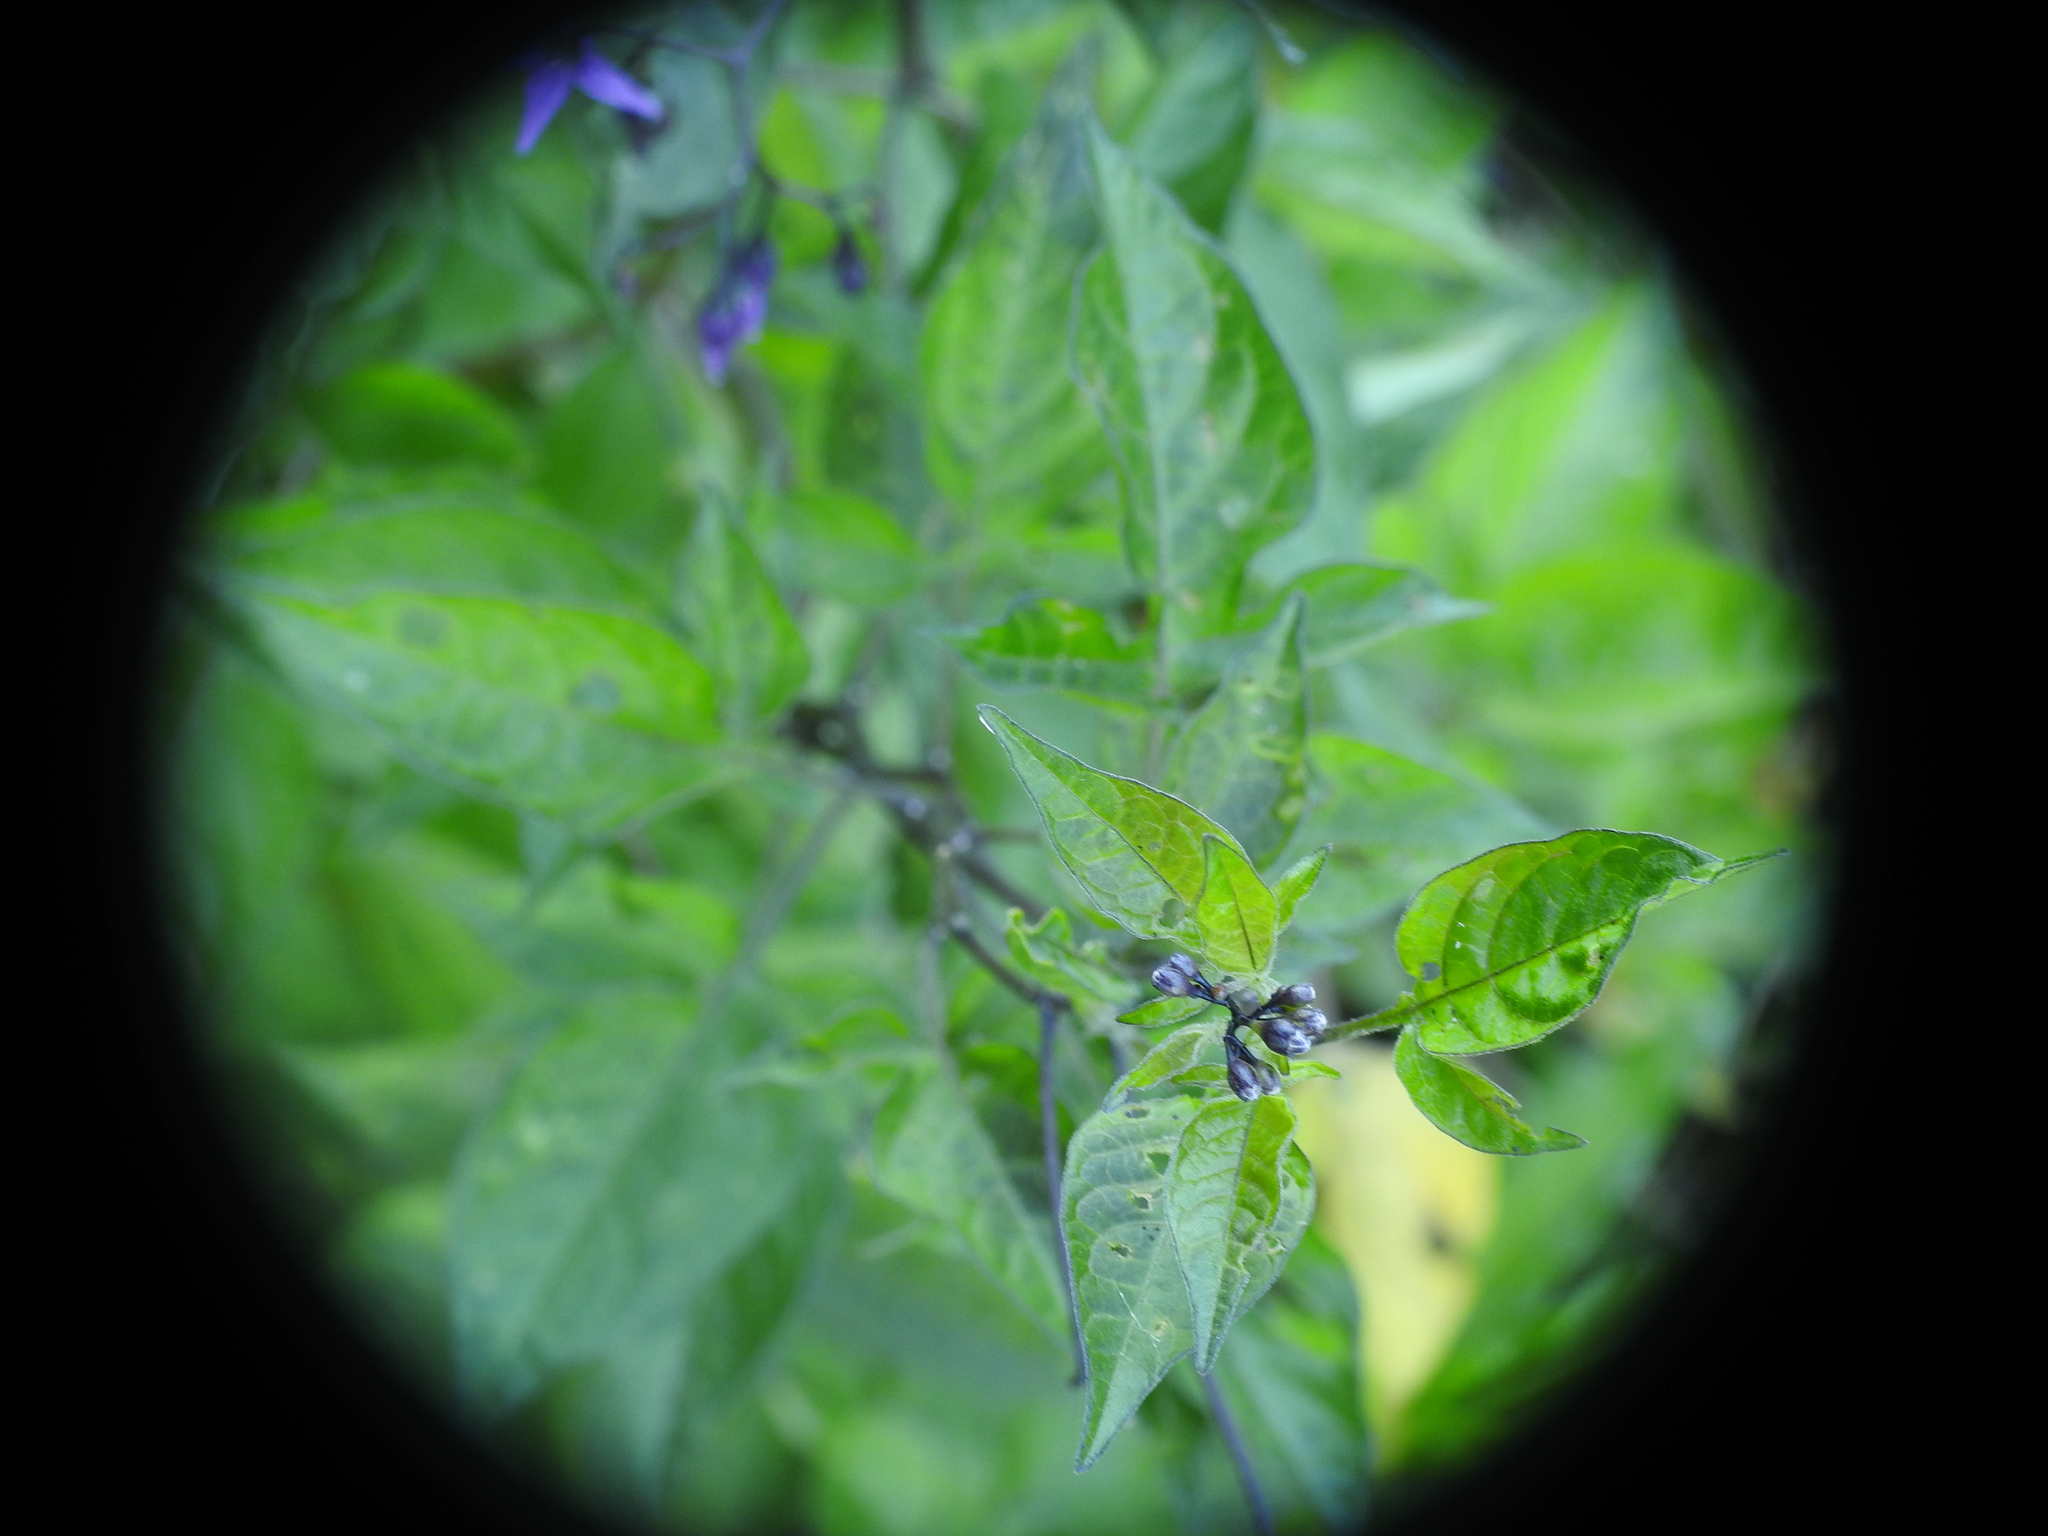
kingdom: Plantae
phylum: Tracheophyta
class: Magnoliopsida
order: Solanales
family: Solanaceae
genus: Solanum
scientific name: Solanum dulcamara
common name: Climbing nightshade
